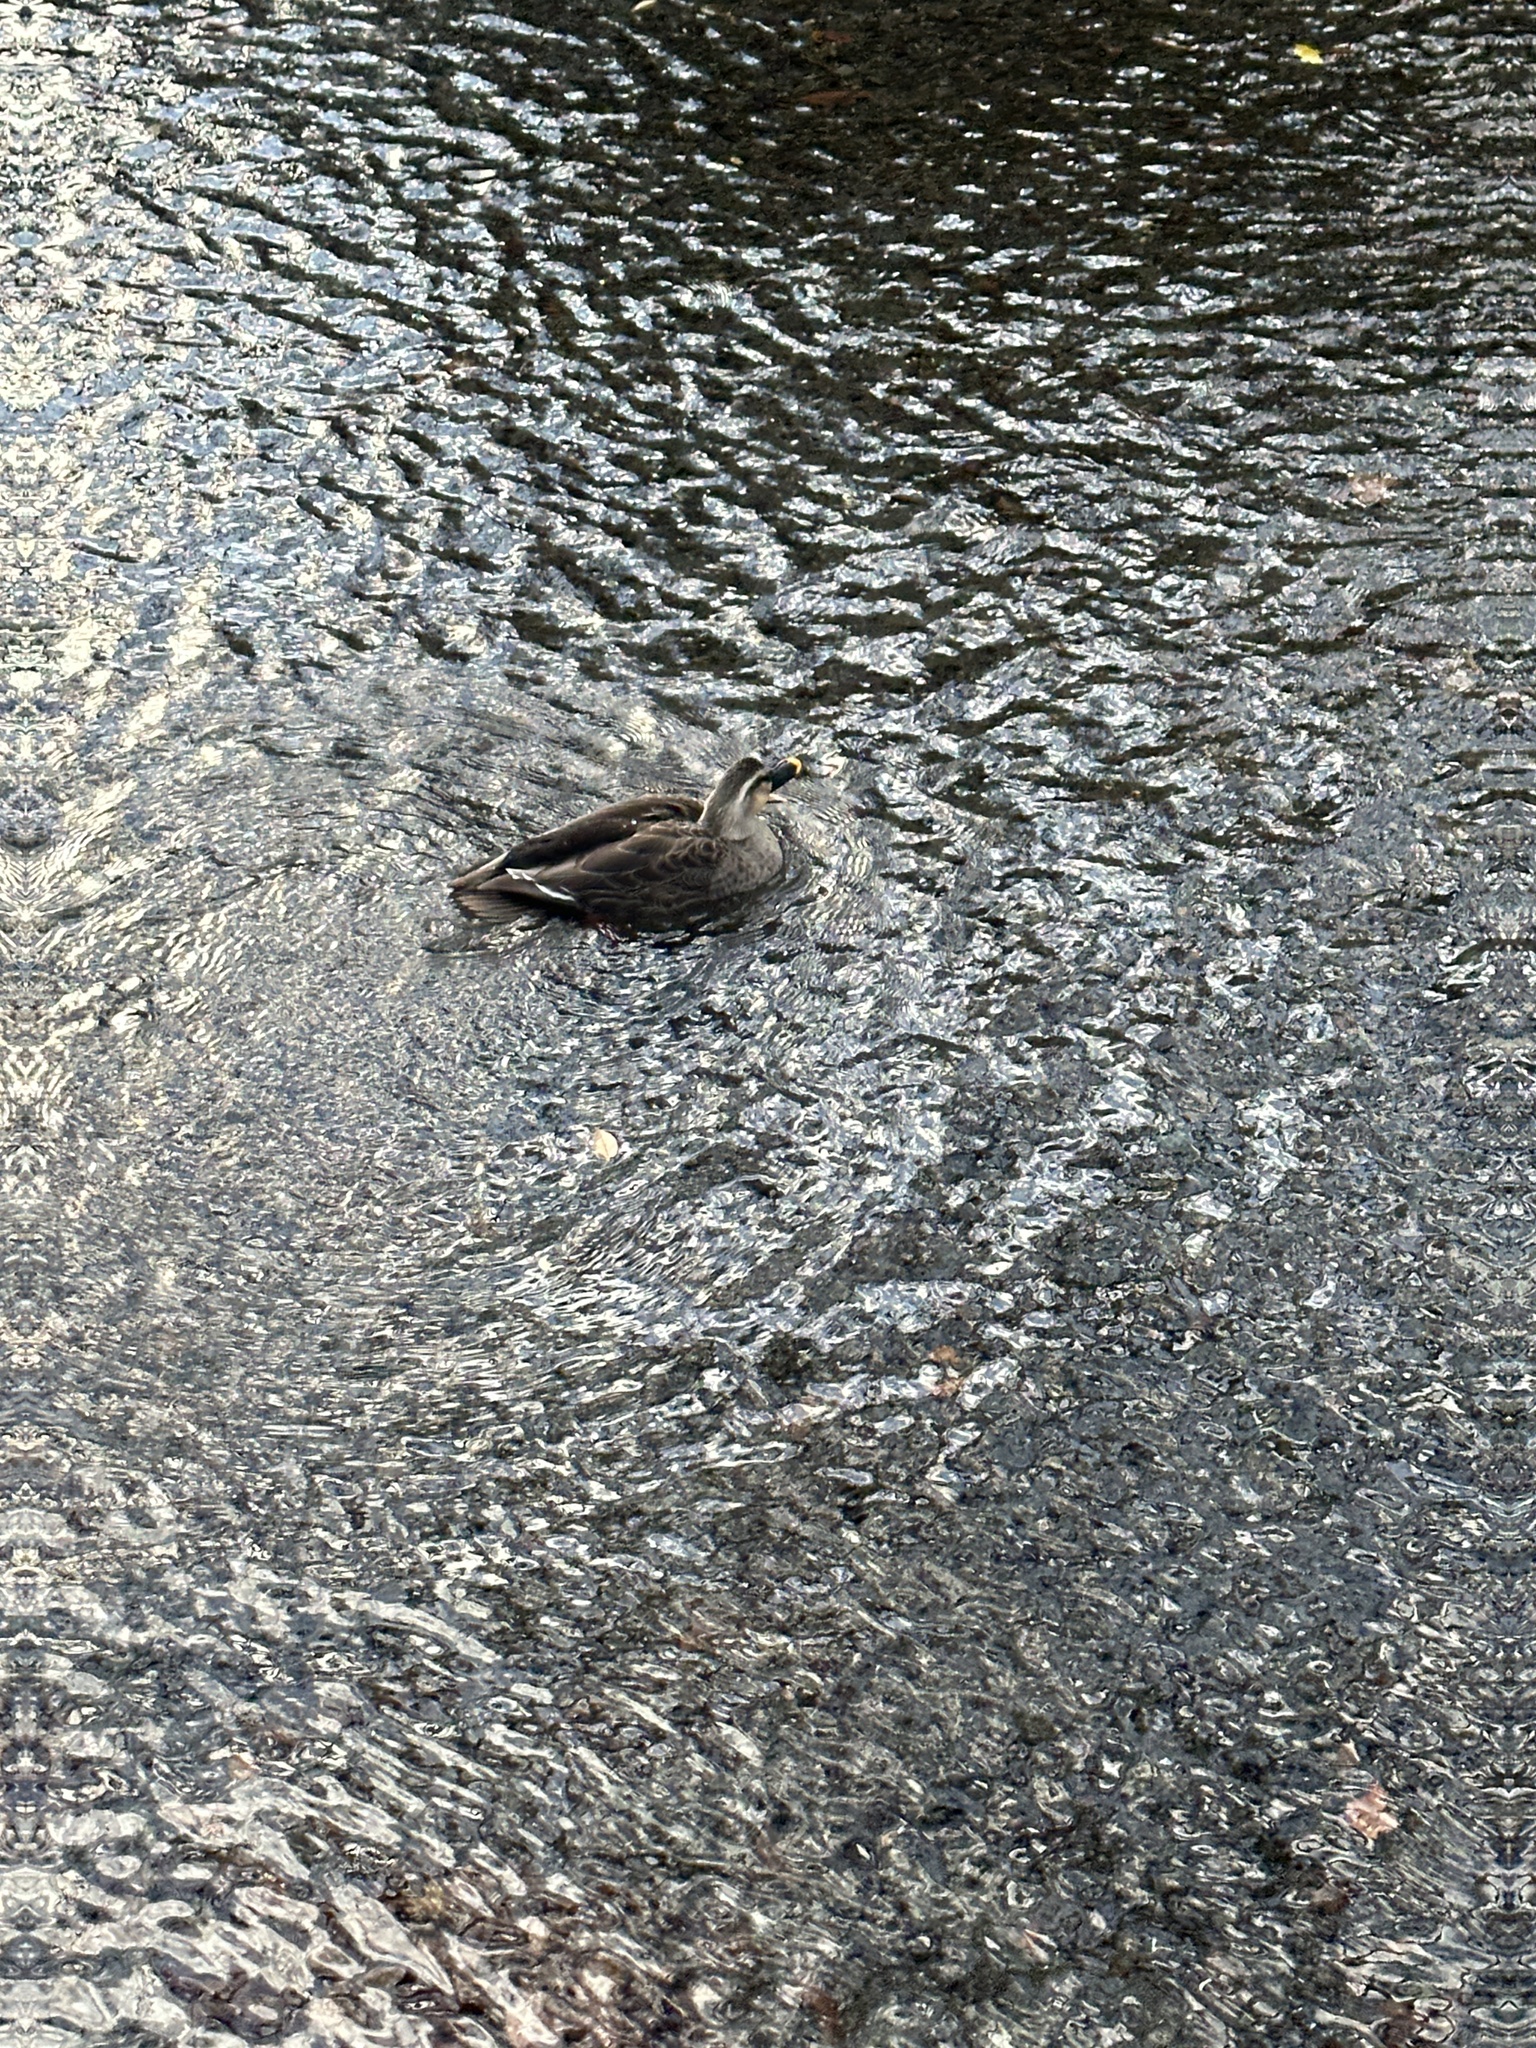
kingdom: Animalia
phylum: Chordata
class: Aves
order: Anseriformes
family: Anatidae
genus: Anas
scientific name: Anas zonorhyncha
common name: Eastern spot-billed duck
